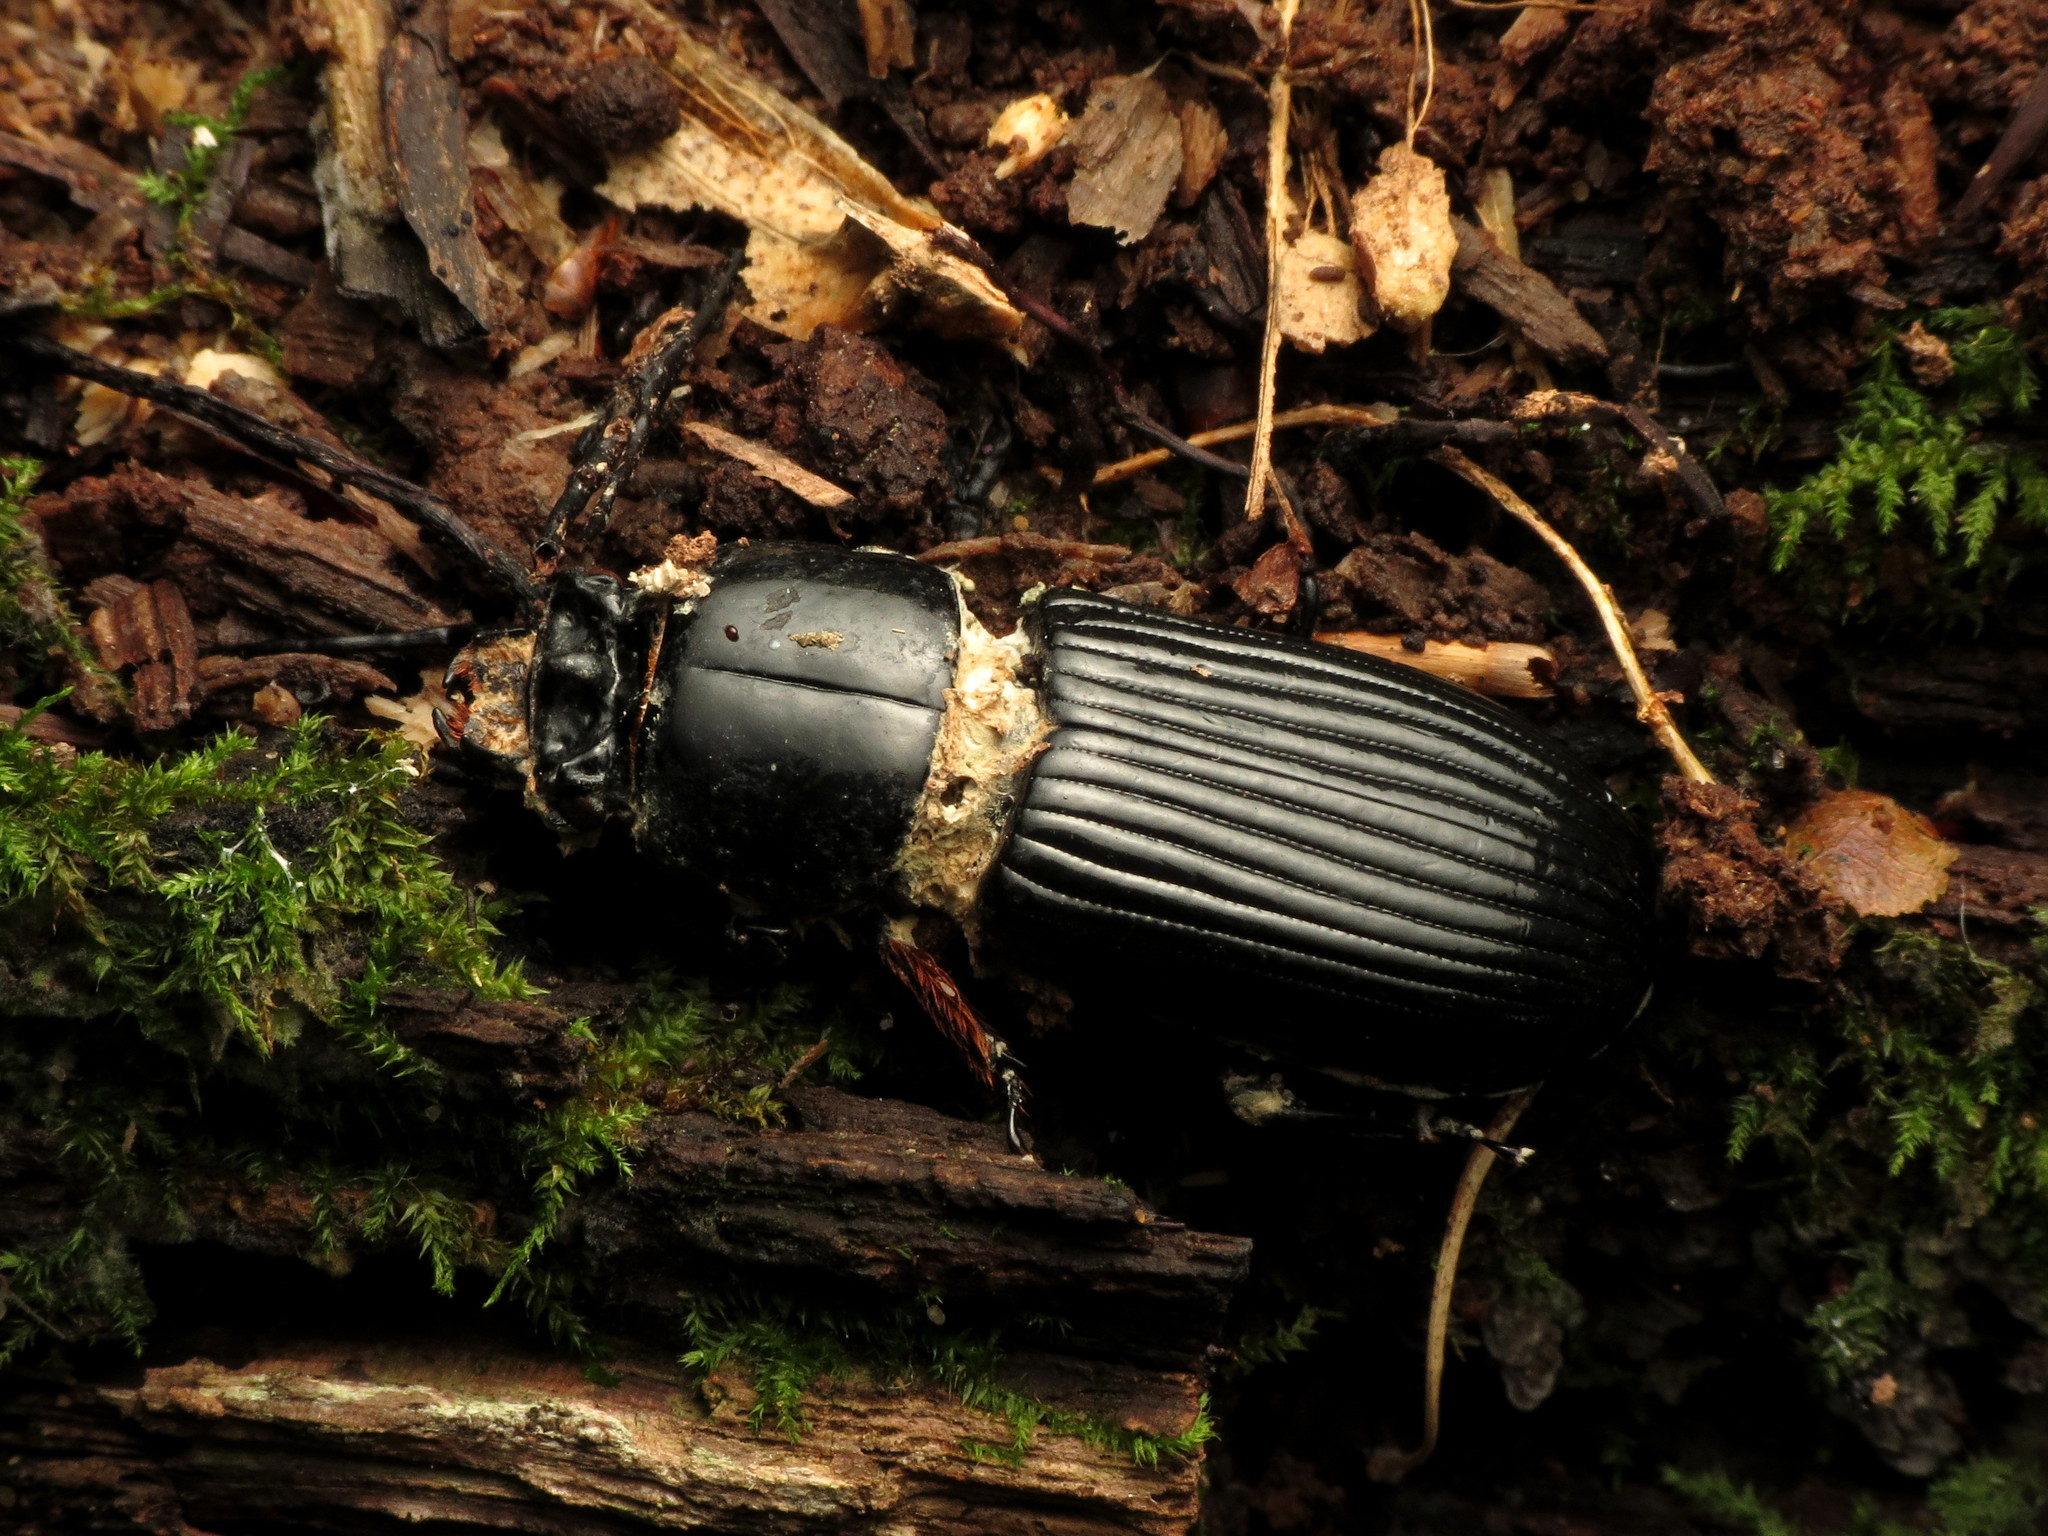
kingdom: Animalia
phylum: Arthropoda
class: Insecta
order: Coleoptera
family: Passalidae
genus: Odontotaenius
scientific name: Odontotaenius disjunctus
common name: Patent leather beetle
